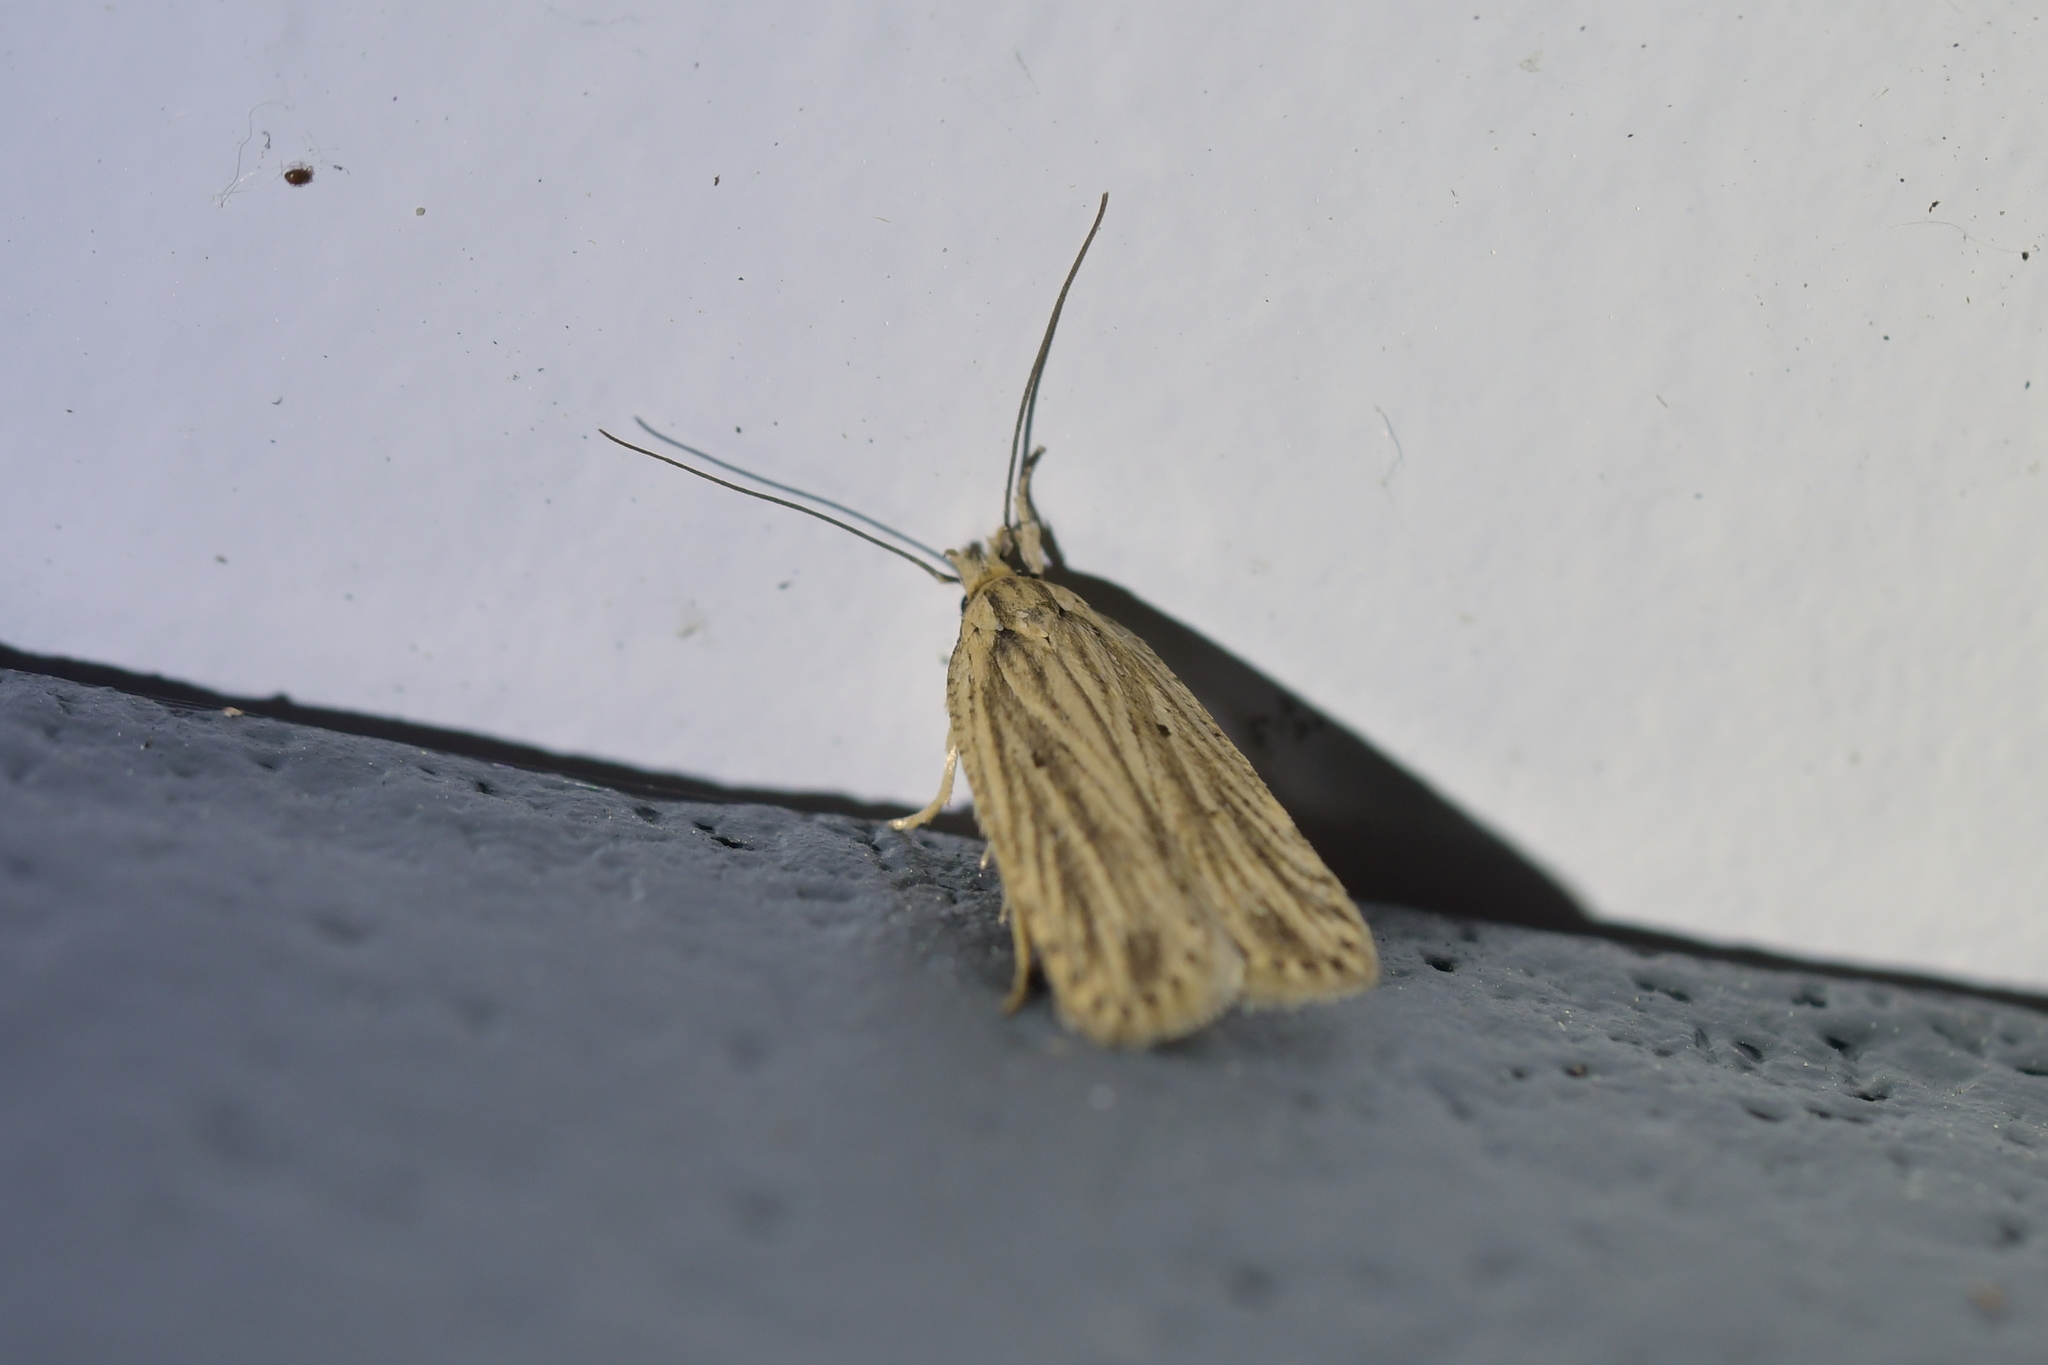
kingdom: Animalia
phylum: Arthropoda
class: Insecta
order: Lepidoptera
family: Depressariidae
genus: Agonopterix
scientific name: Agonopterix
